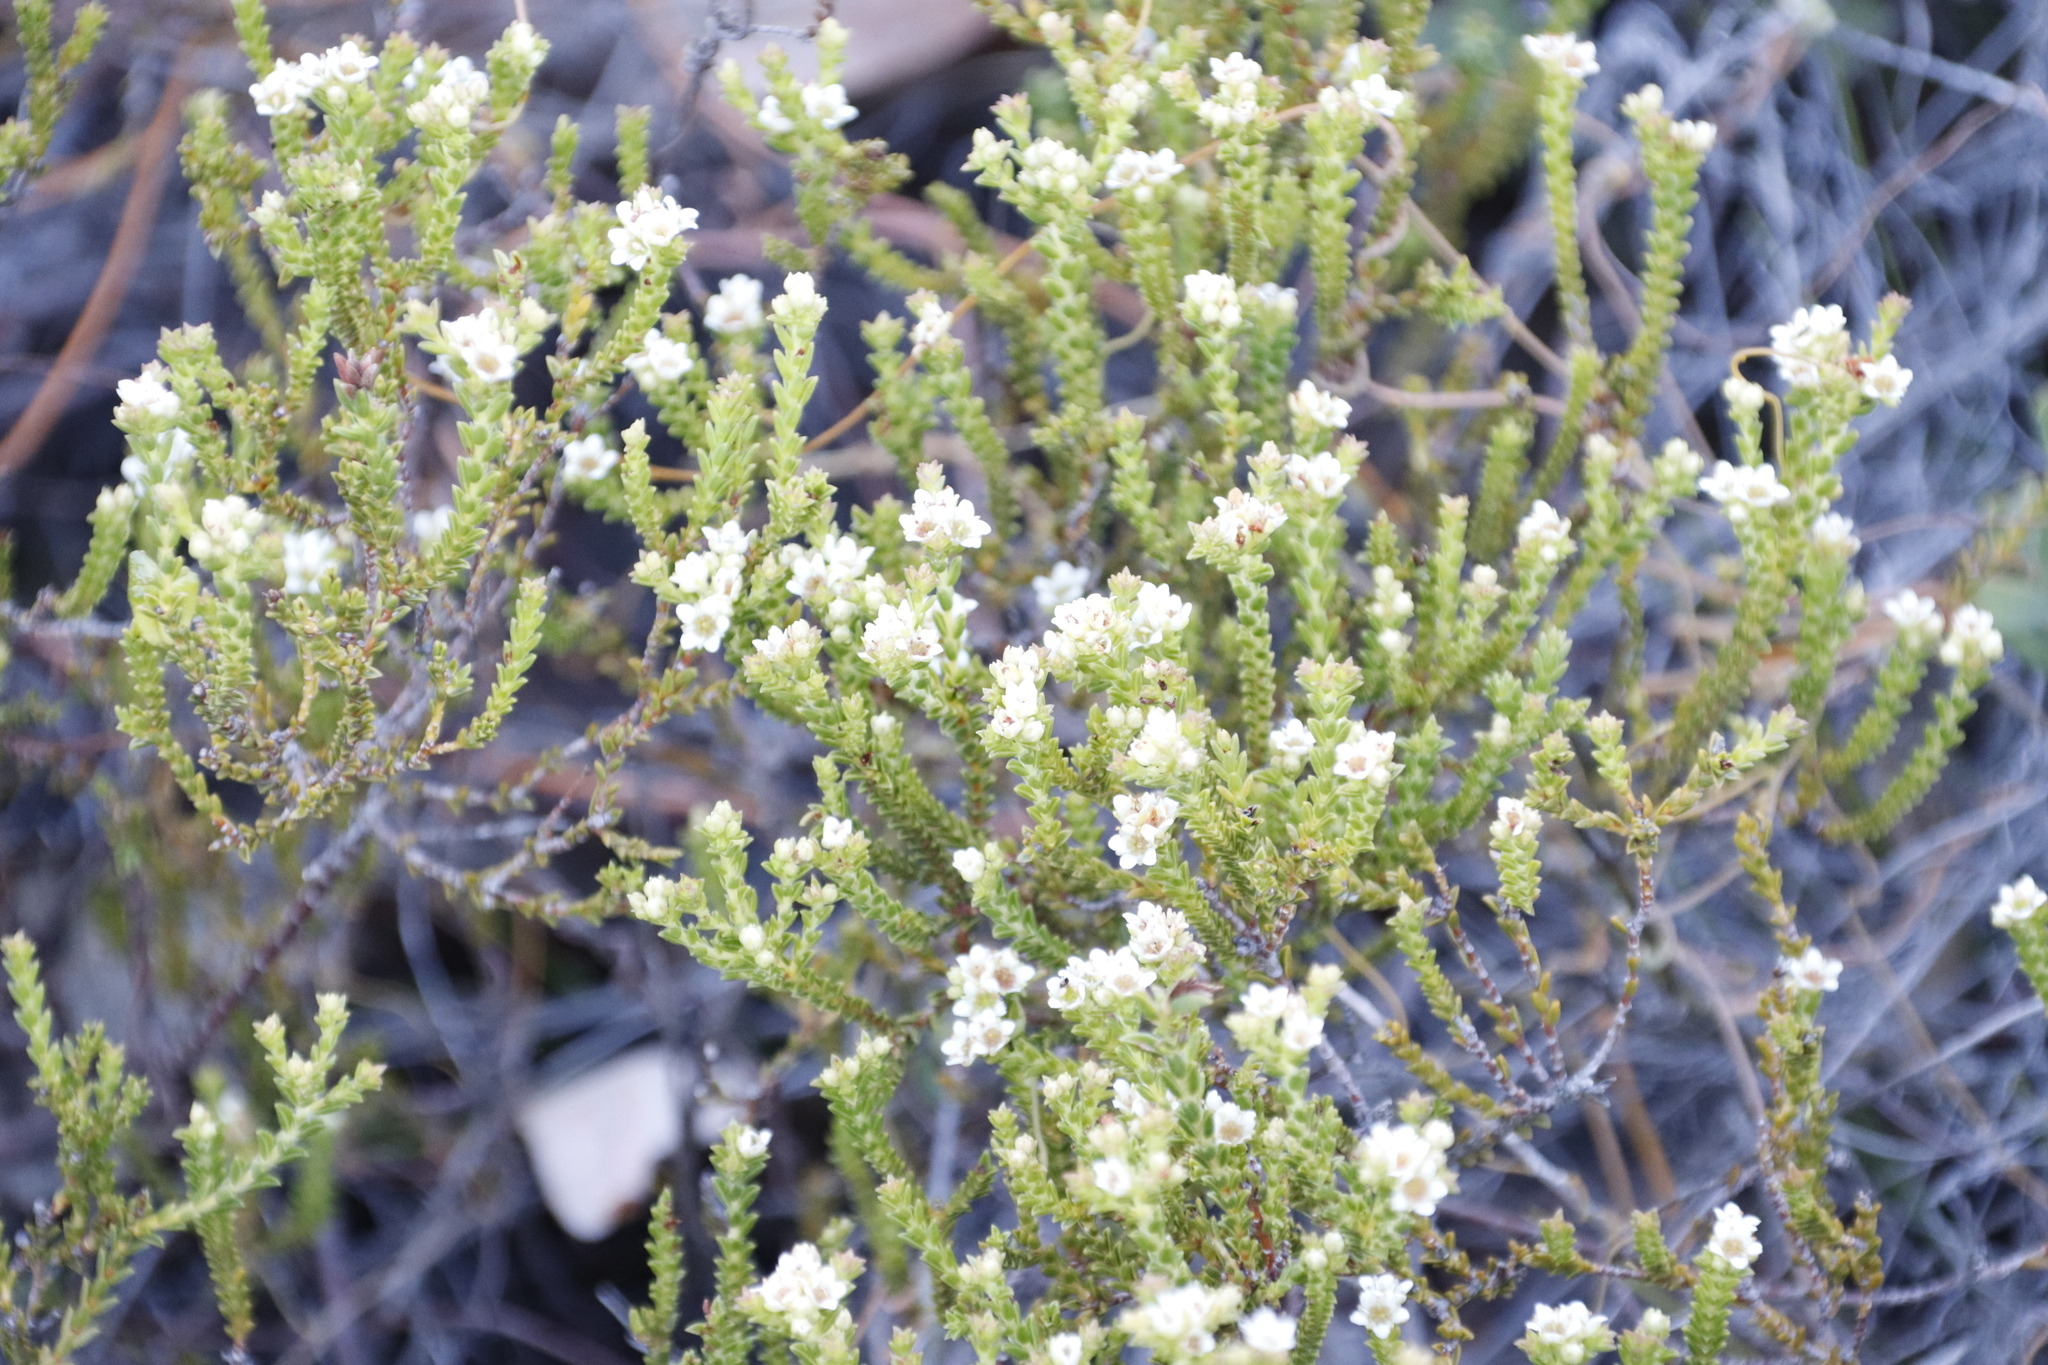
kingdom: Plantae
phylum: Tracheophyta
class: Magnoliopsida
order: Sapindales
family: Rutaceae
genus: Diosma
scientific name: Diosma oppositifolia
